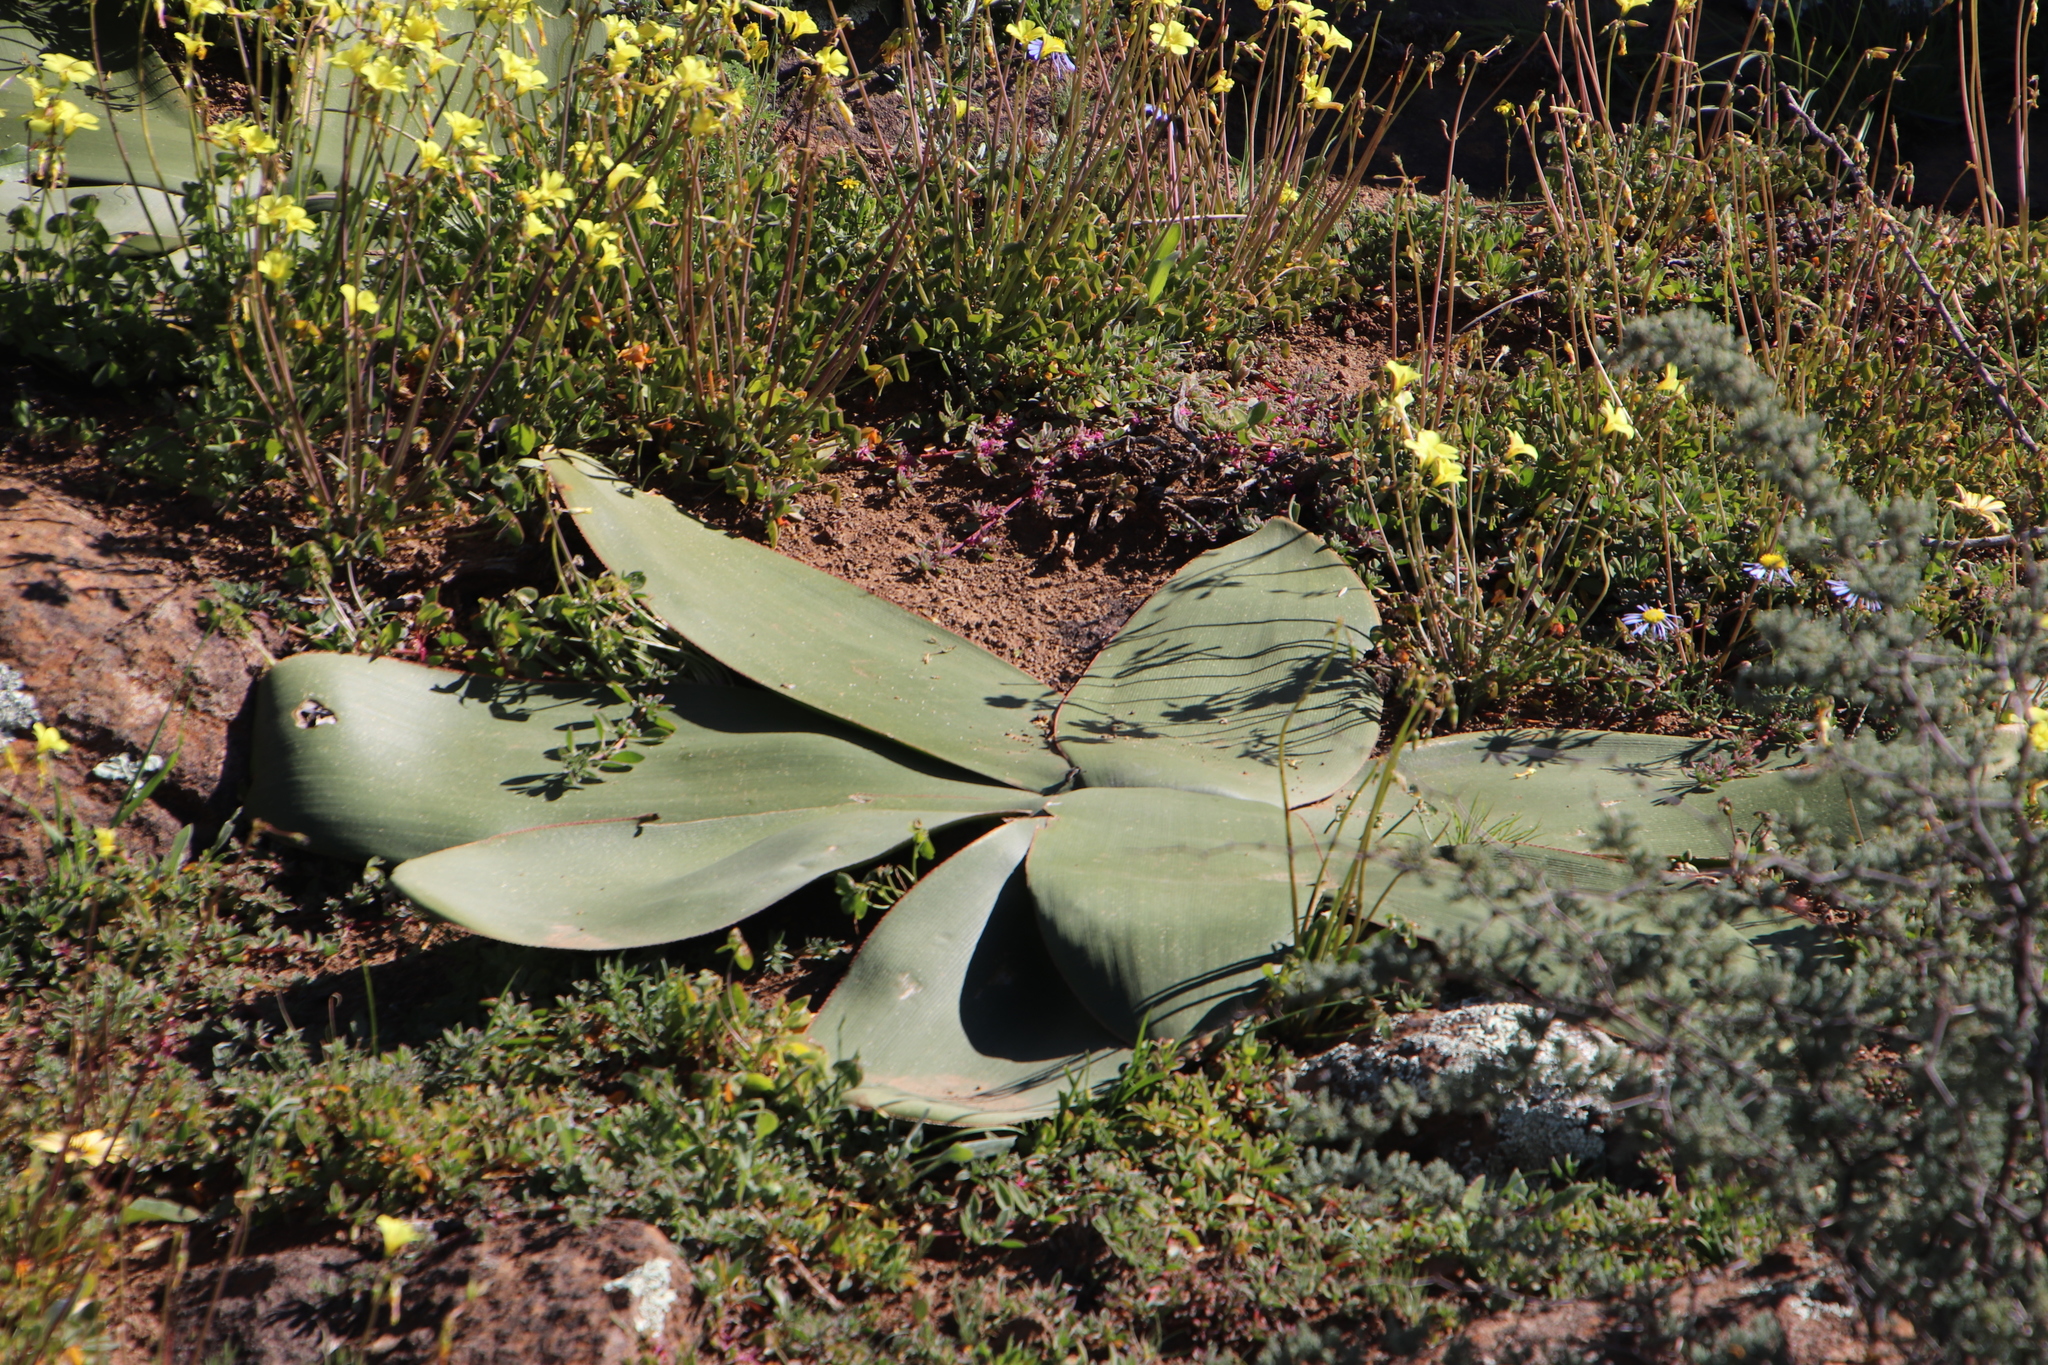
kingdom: Plantae
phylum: Tracheophyta
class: Liliopsida
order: Asparagales
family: Amaryllidaceae
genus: Brunsvigia
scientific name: Brunsvigia bosmaniae
